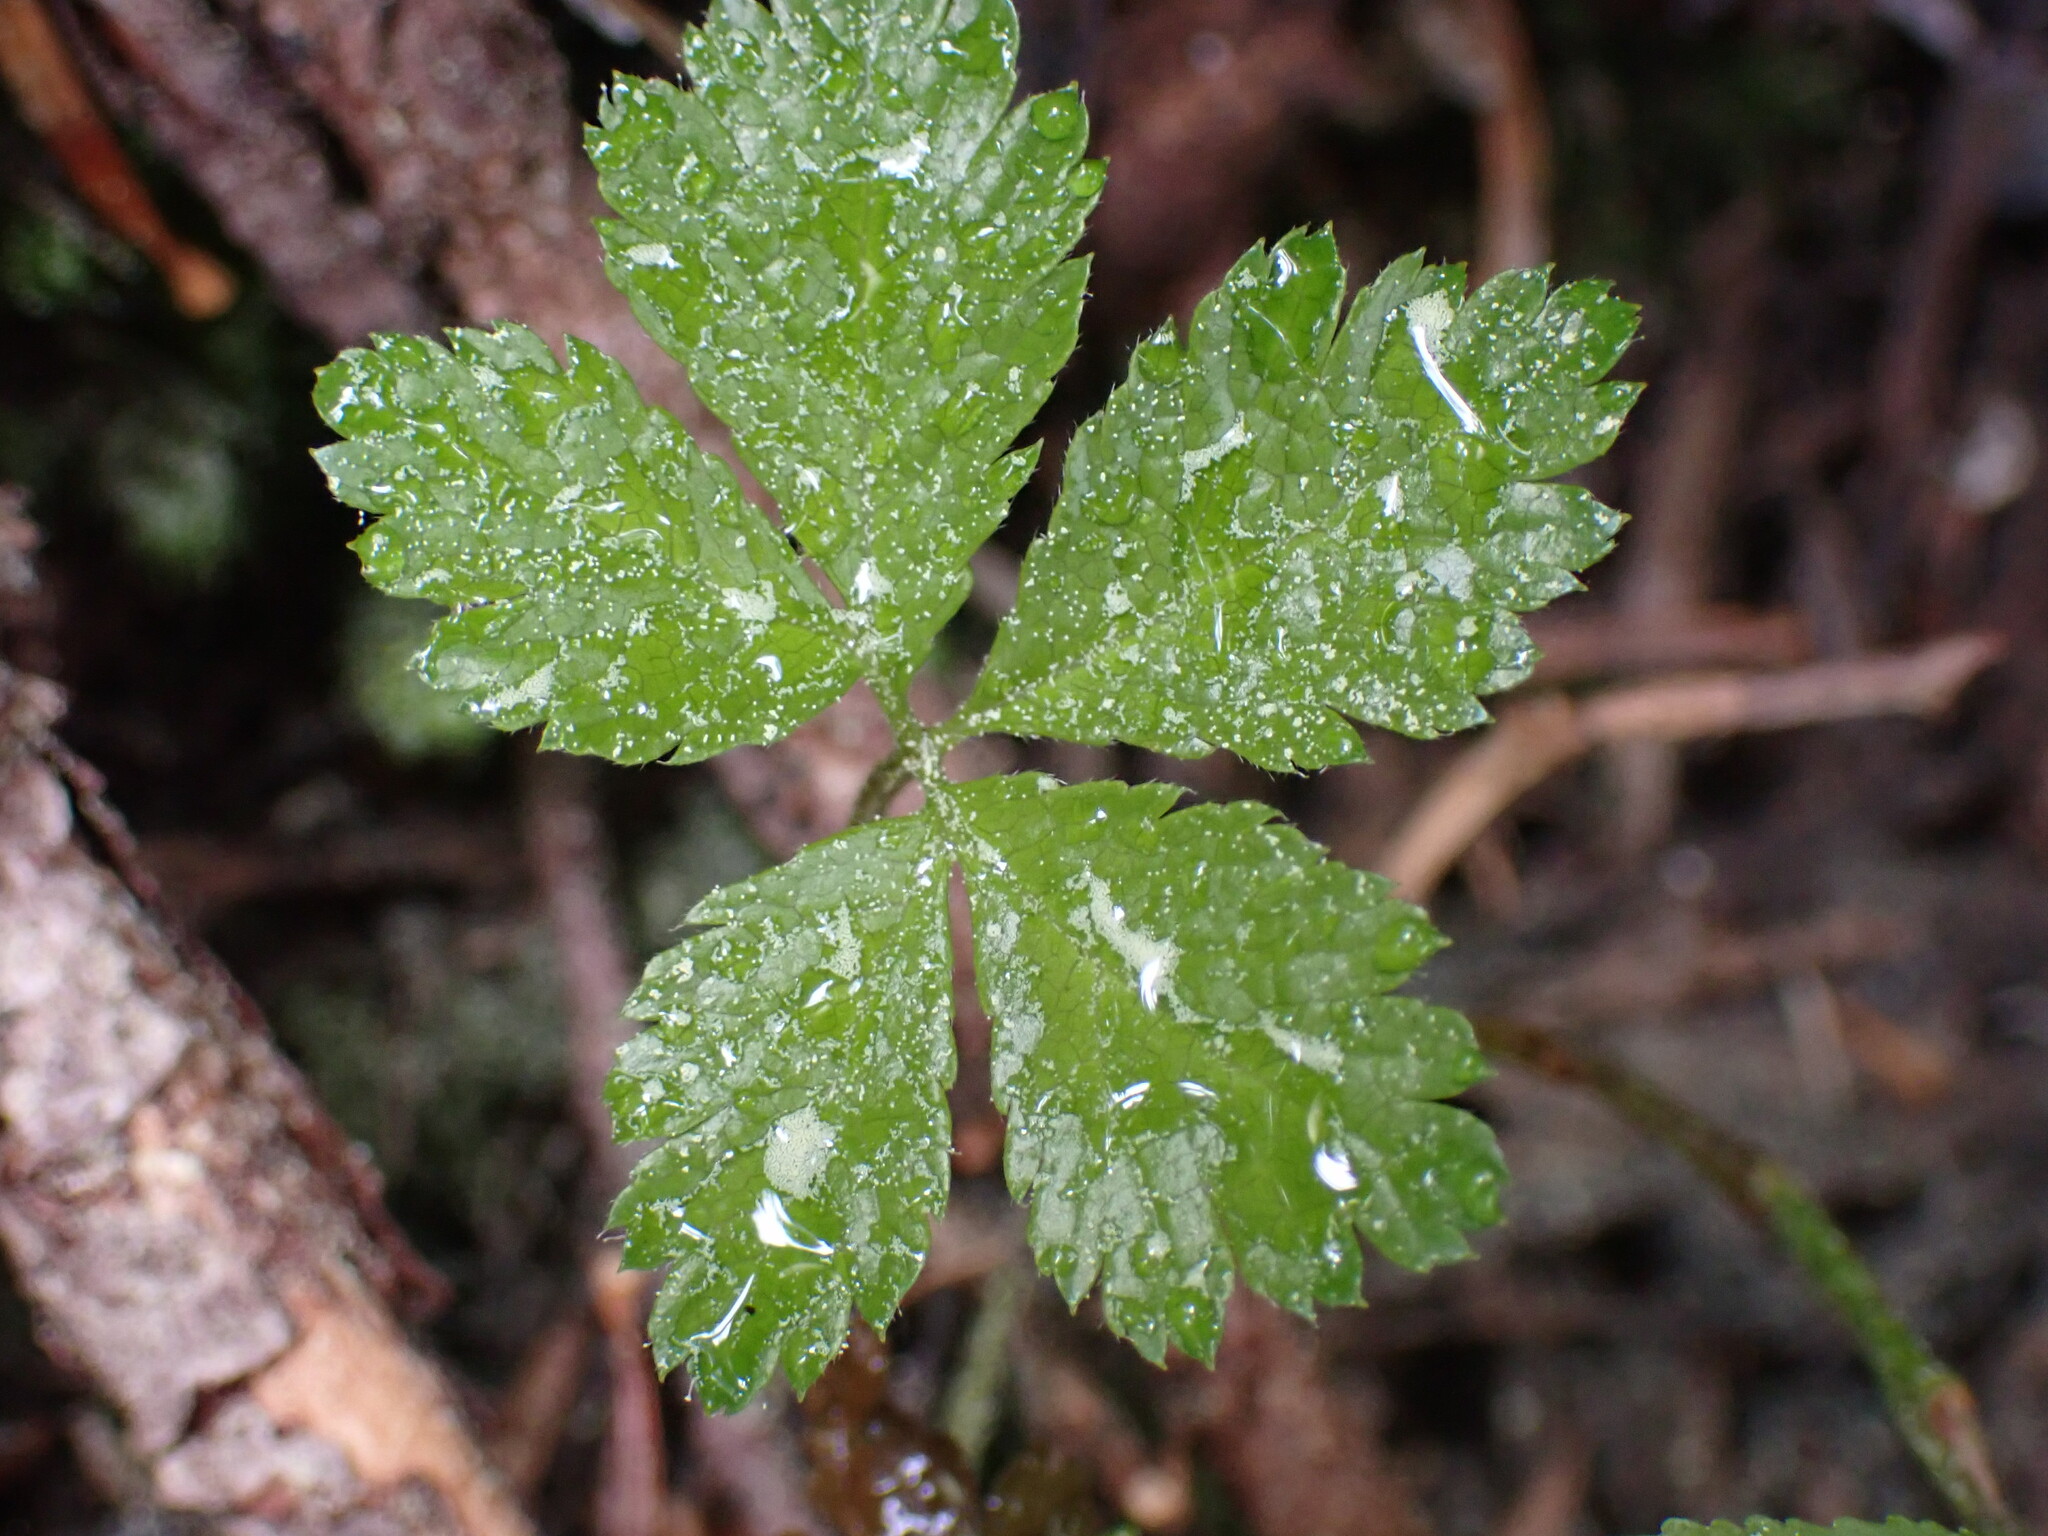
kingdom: Plantae
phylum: Tracheophyta
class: Magnoliopsida
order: Rosales
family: Rosaceae
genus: Rubus
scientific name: Rubus pedatus
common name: Creeping raspberry
